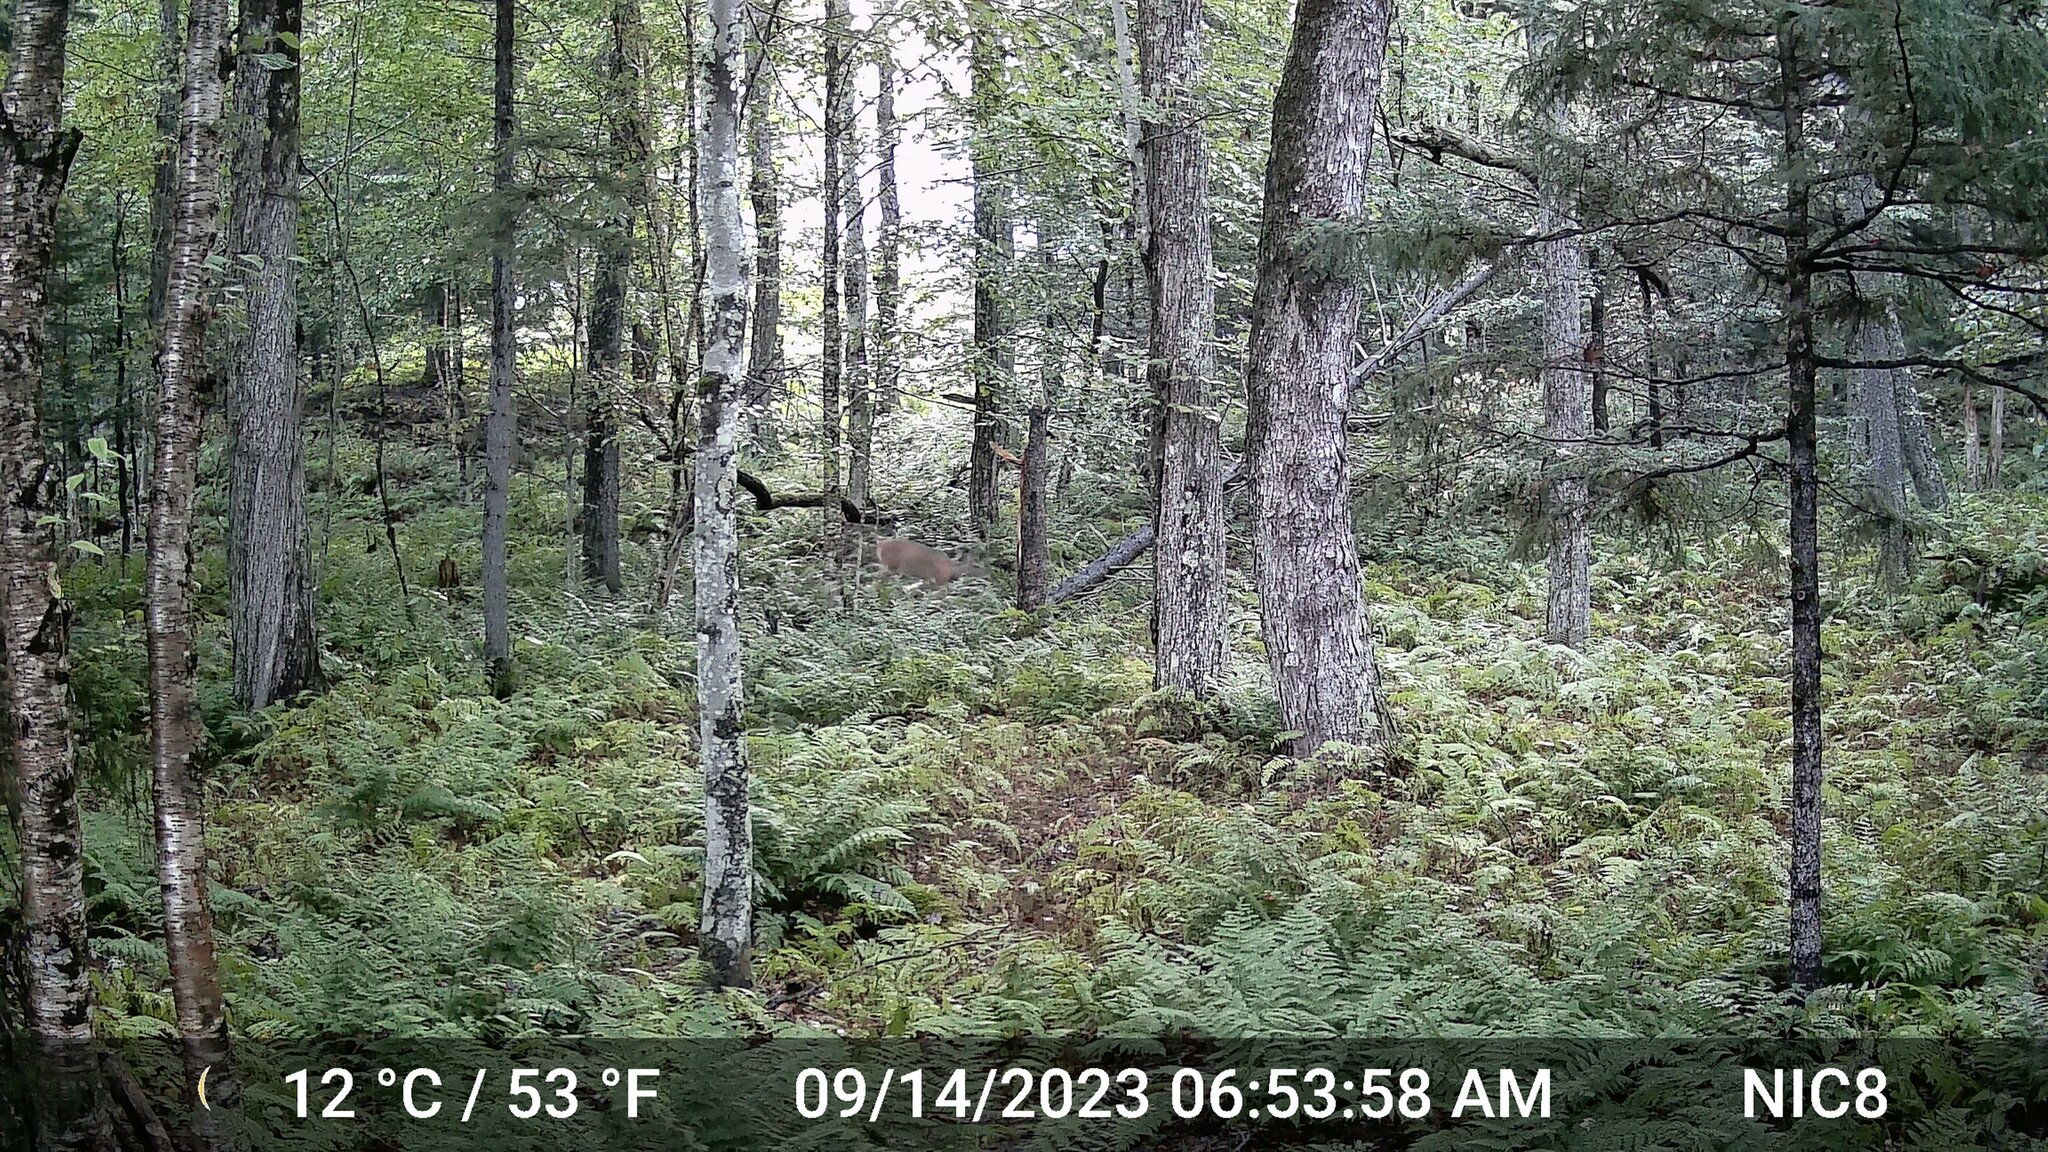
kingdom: Animalia
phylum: Chordata
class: Mammalia
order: Artiodactyla
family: Cervidae
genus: Odocoileus
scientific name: Odocoileus virginianus
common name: White-tailed deer
